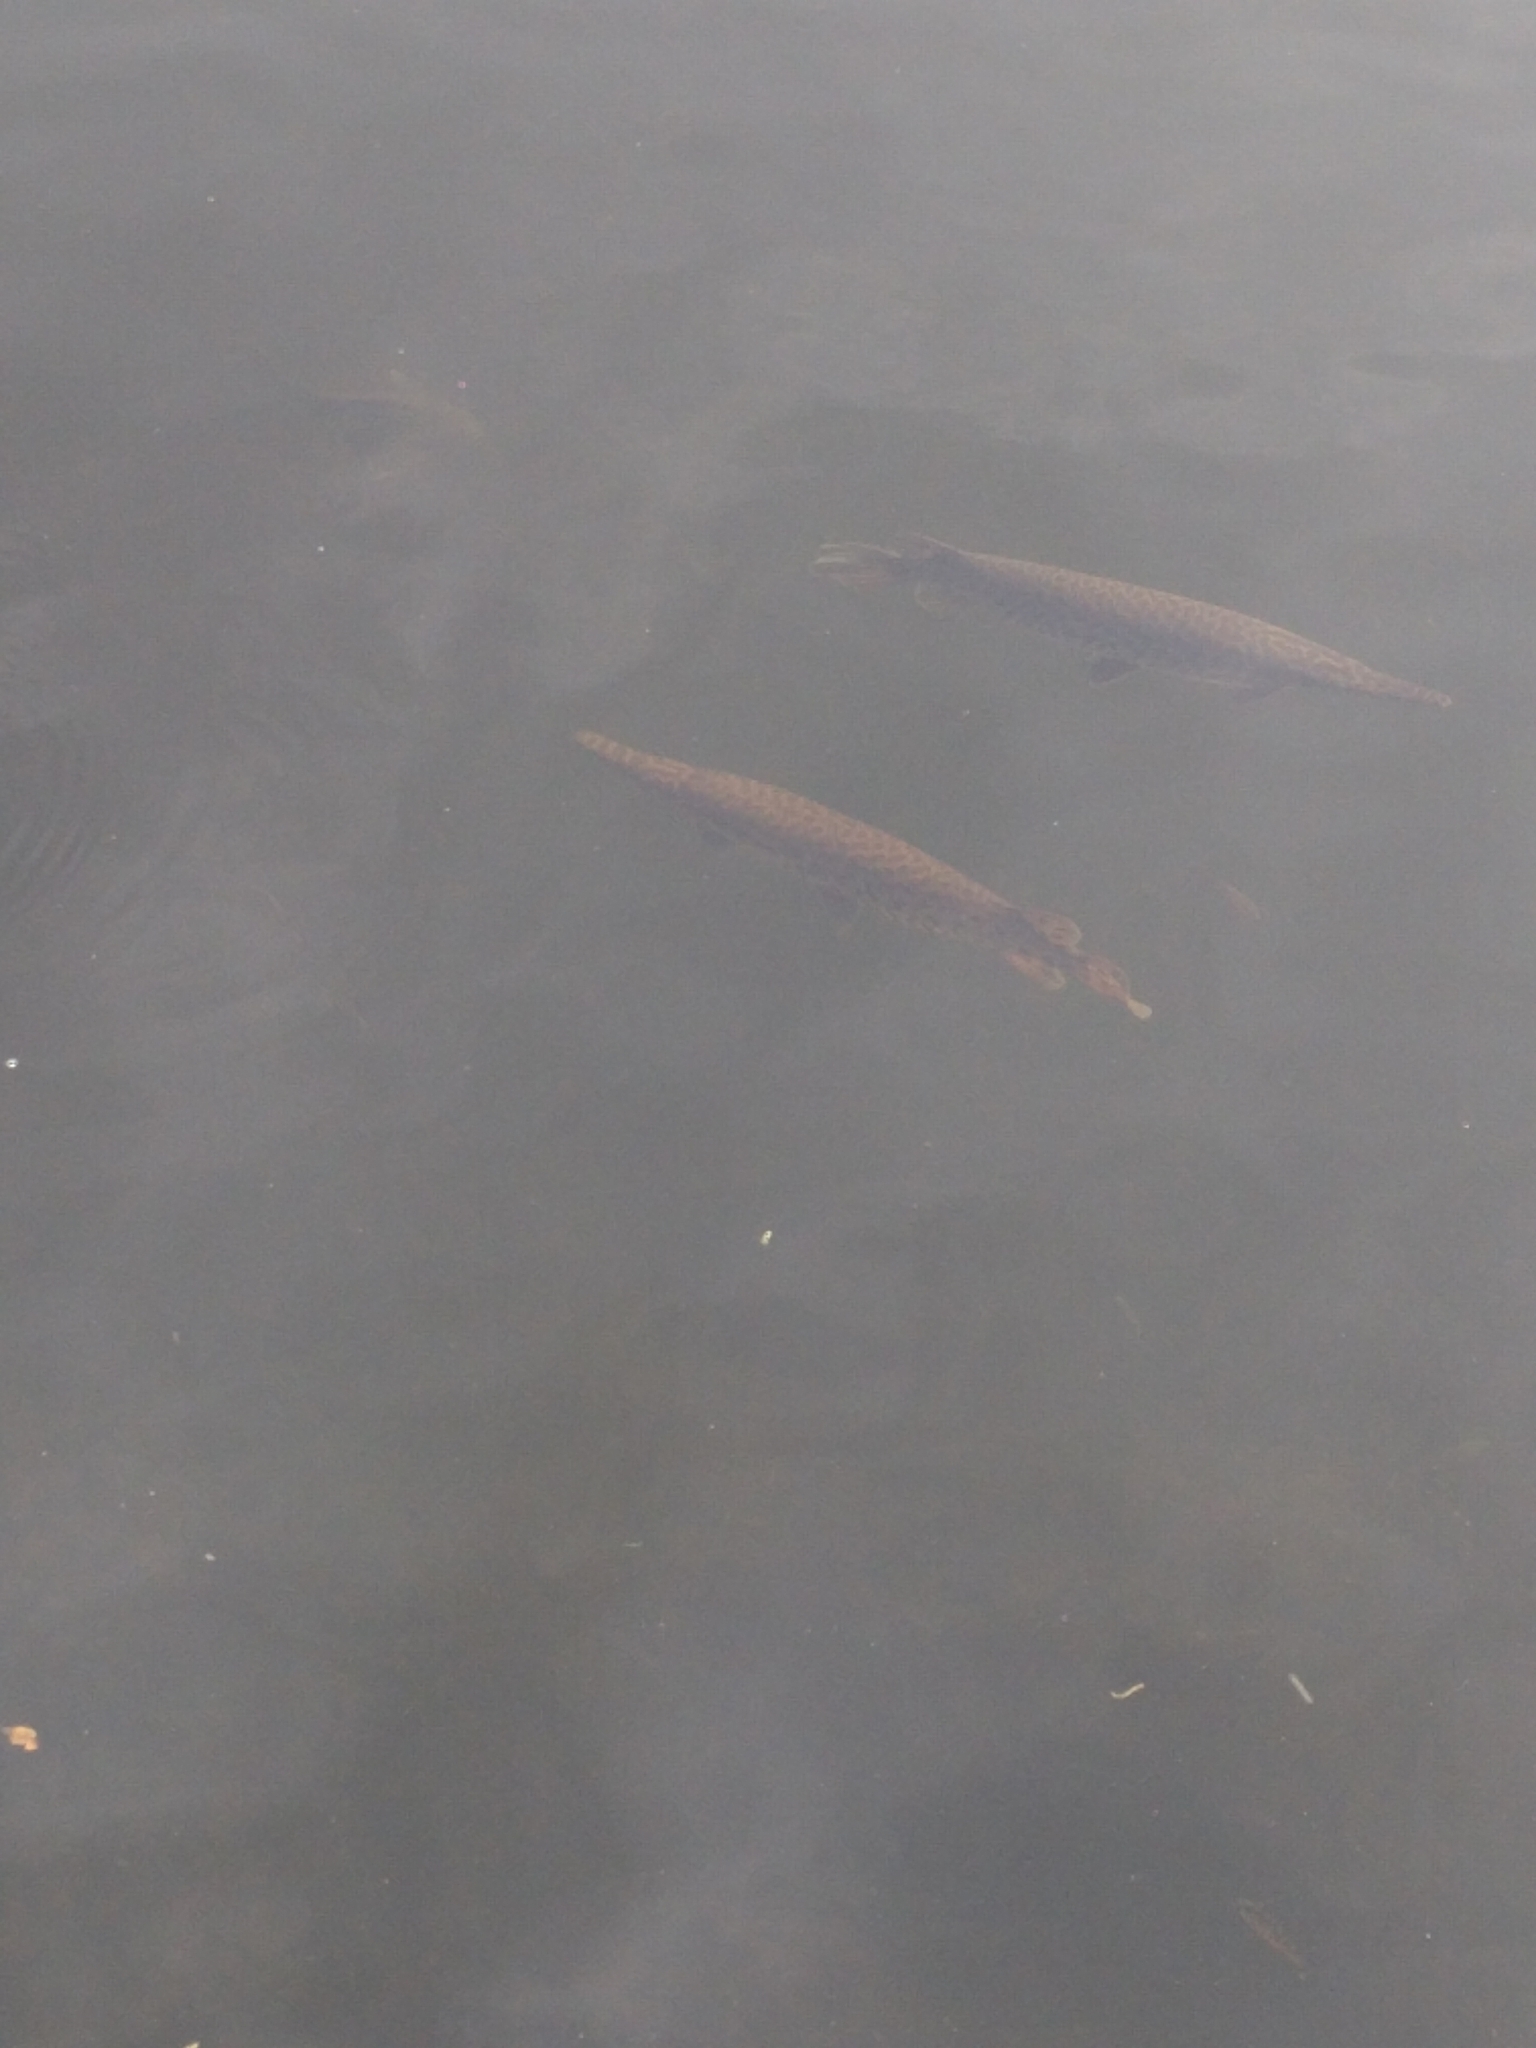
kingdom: Animalia
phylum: Chordata
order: Lepisosteiformes
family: Lepisosteidae
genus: Lepisosteus
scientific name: Lepisosteus platyrhincus
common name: Florida gar
